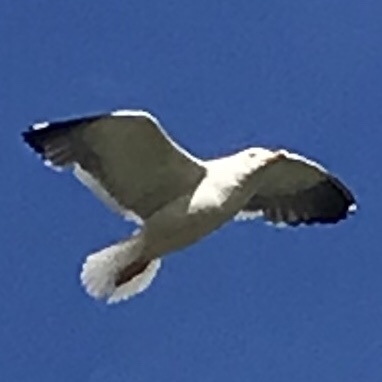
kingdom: Animalia
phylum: Chordata
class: Aves
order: Charadriiformes
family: Laridae
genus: Larus
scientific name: Larus fuscus
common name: Lesser black-backed gull
